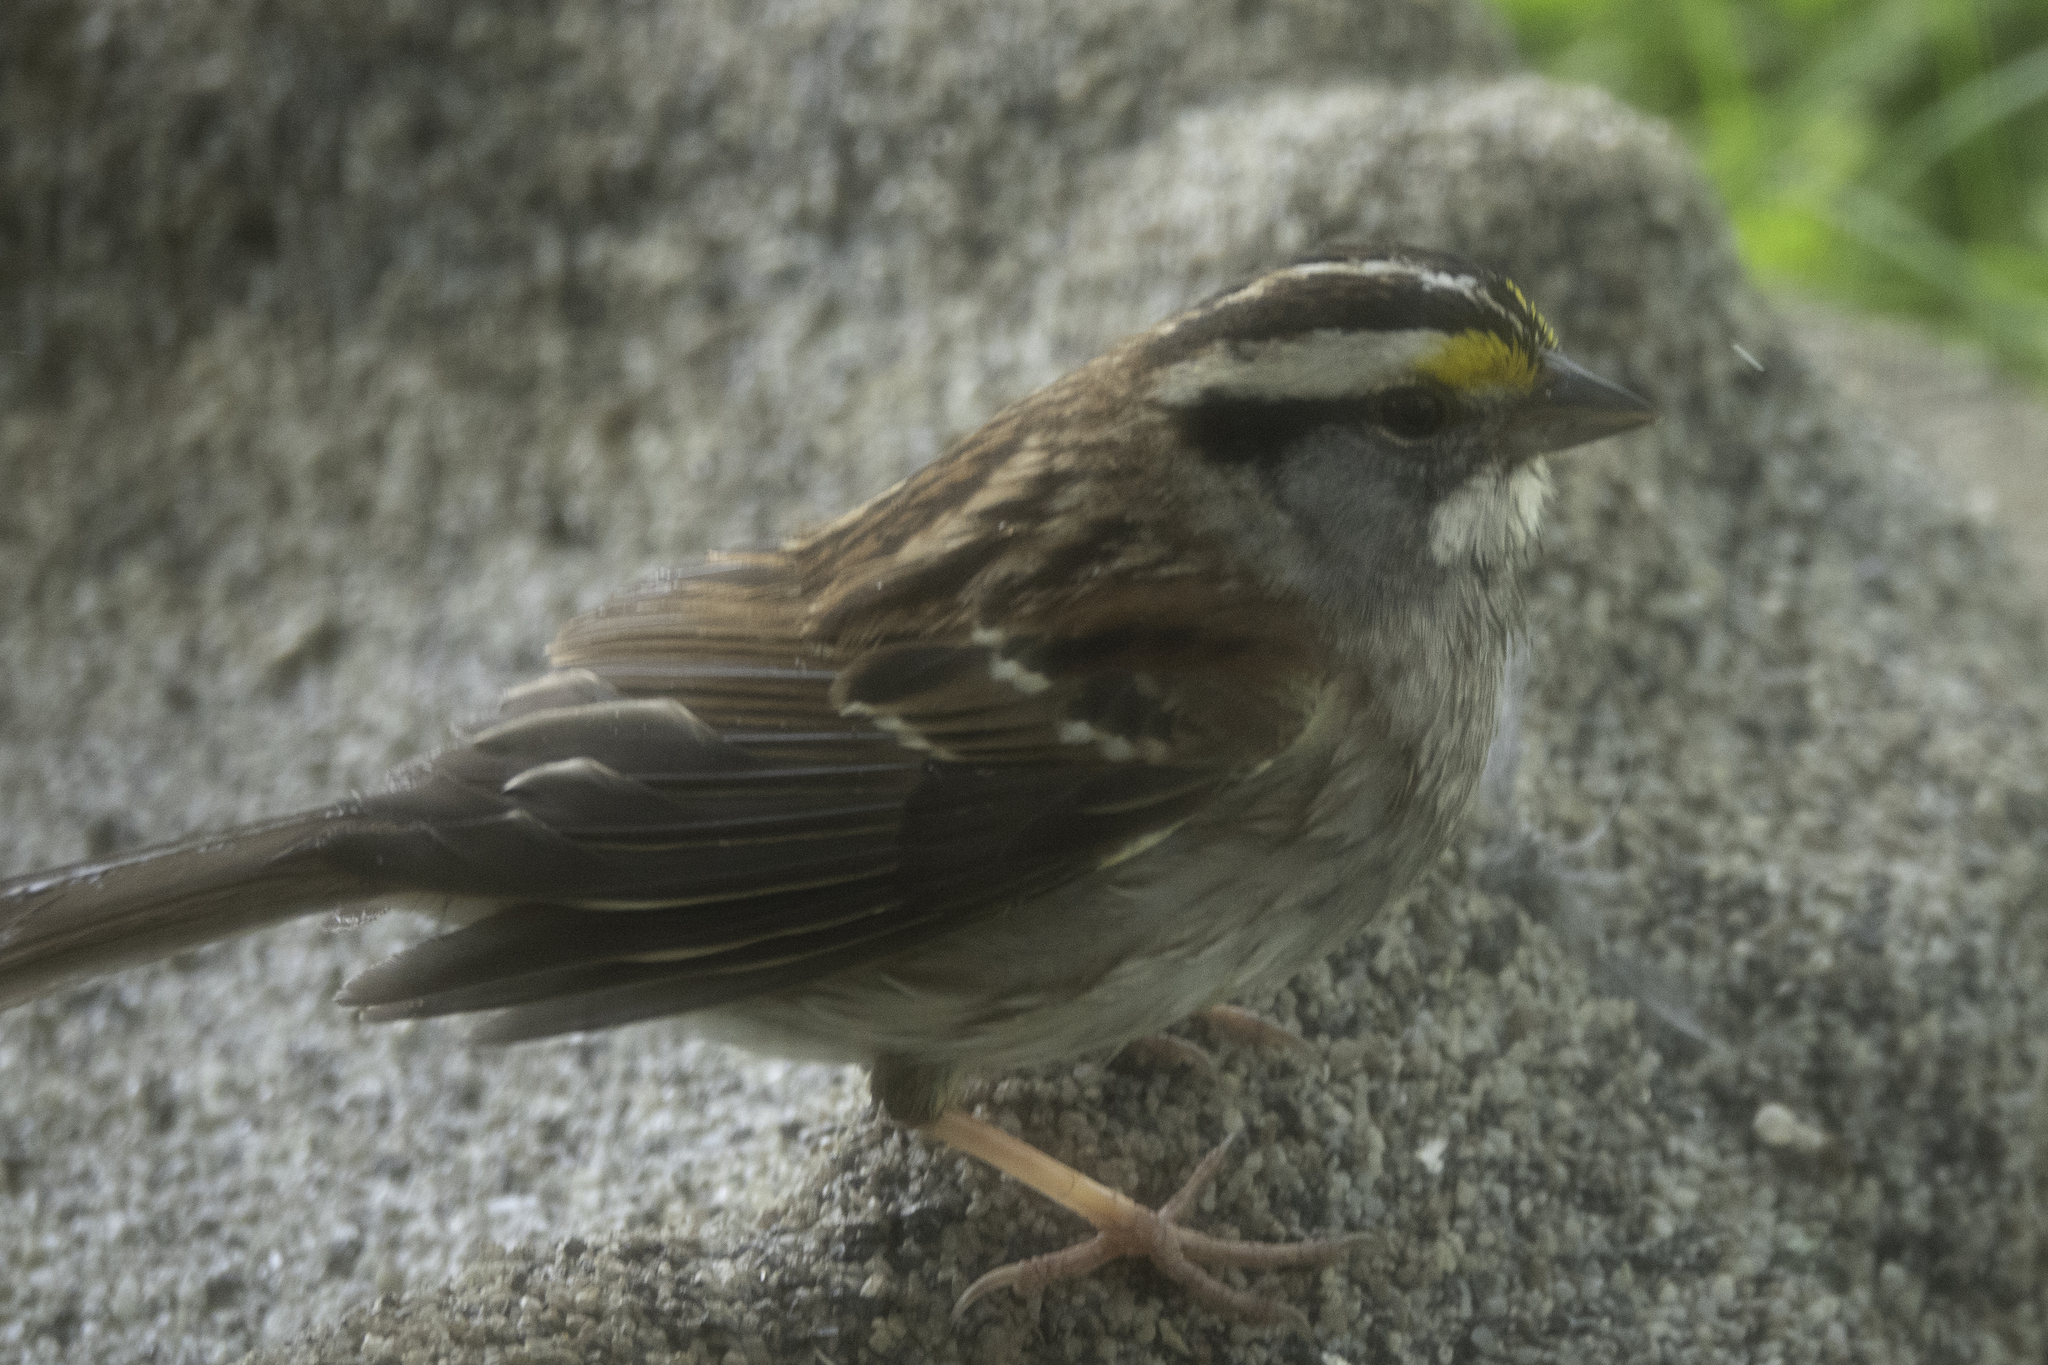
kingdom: Animalia
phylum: Chordata
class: Aves
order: Passeriformes
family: Passerellidae
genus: Zonotrichia
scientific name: Zonotrichia albicollis
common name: White-throated sparrow
